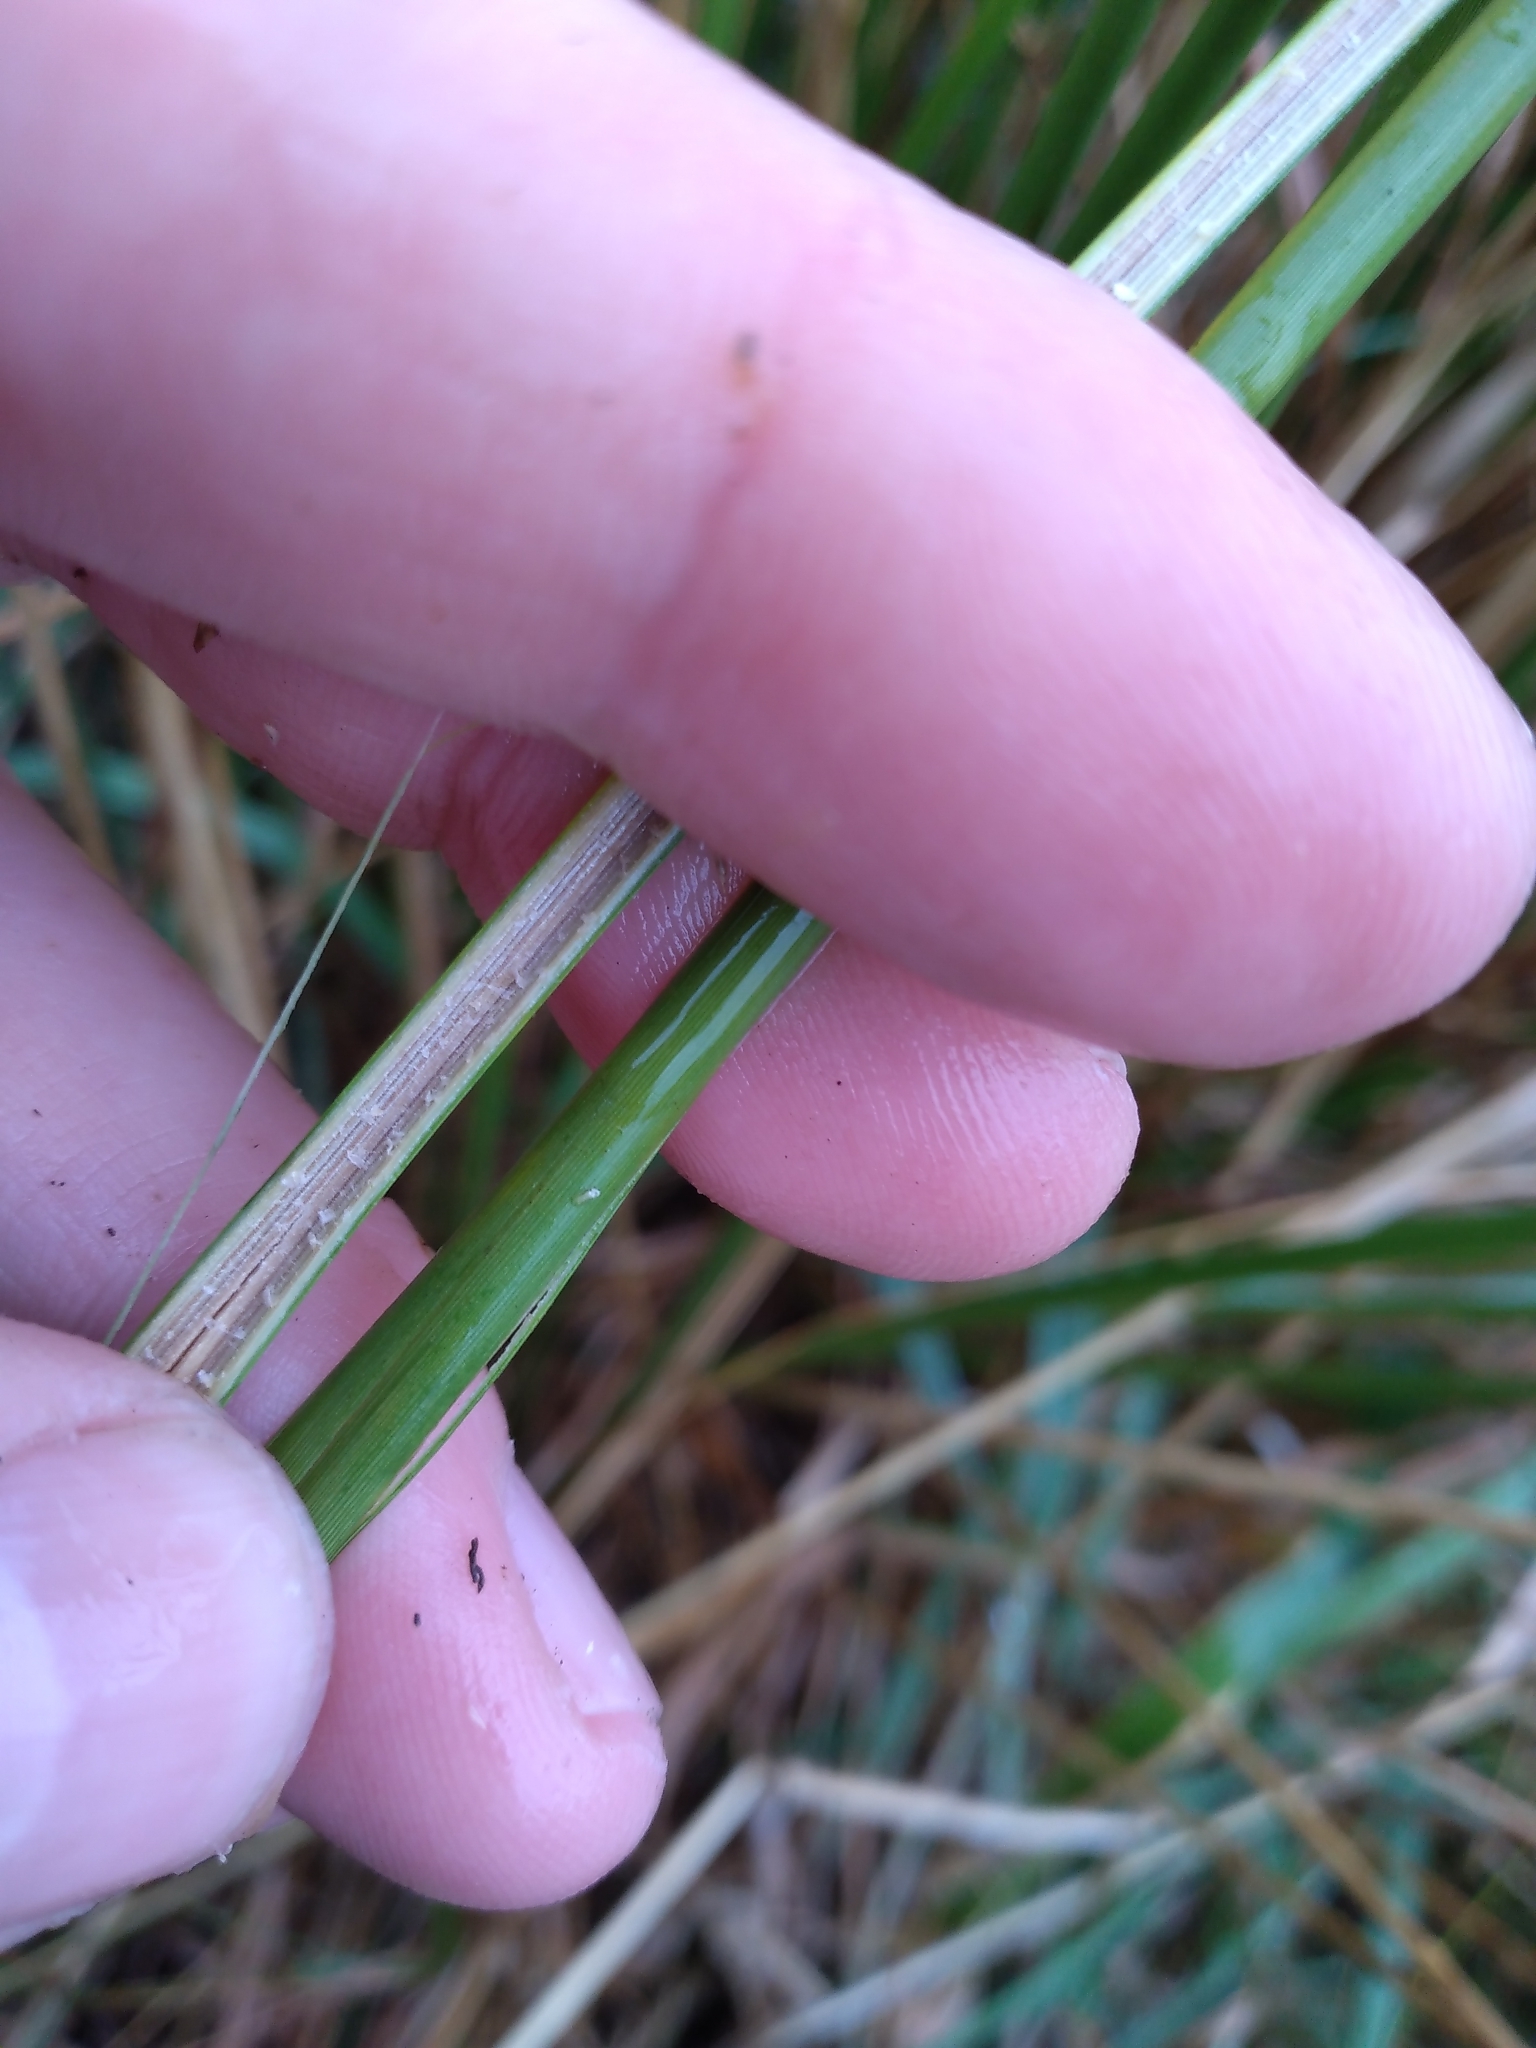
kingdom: Plantae
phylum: Tracheophyta
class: Liliopsida
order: Poales
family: Juncaceae
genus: Juncus
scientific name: Juncus australis
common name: Austral rush
